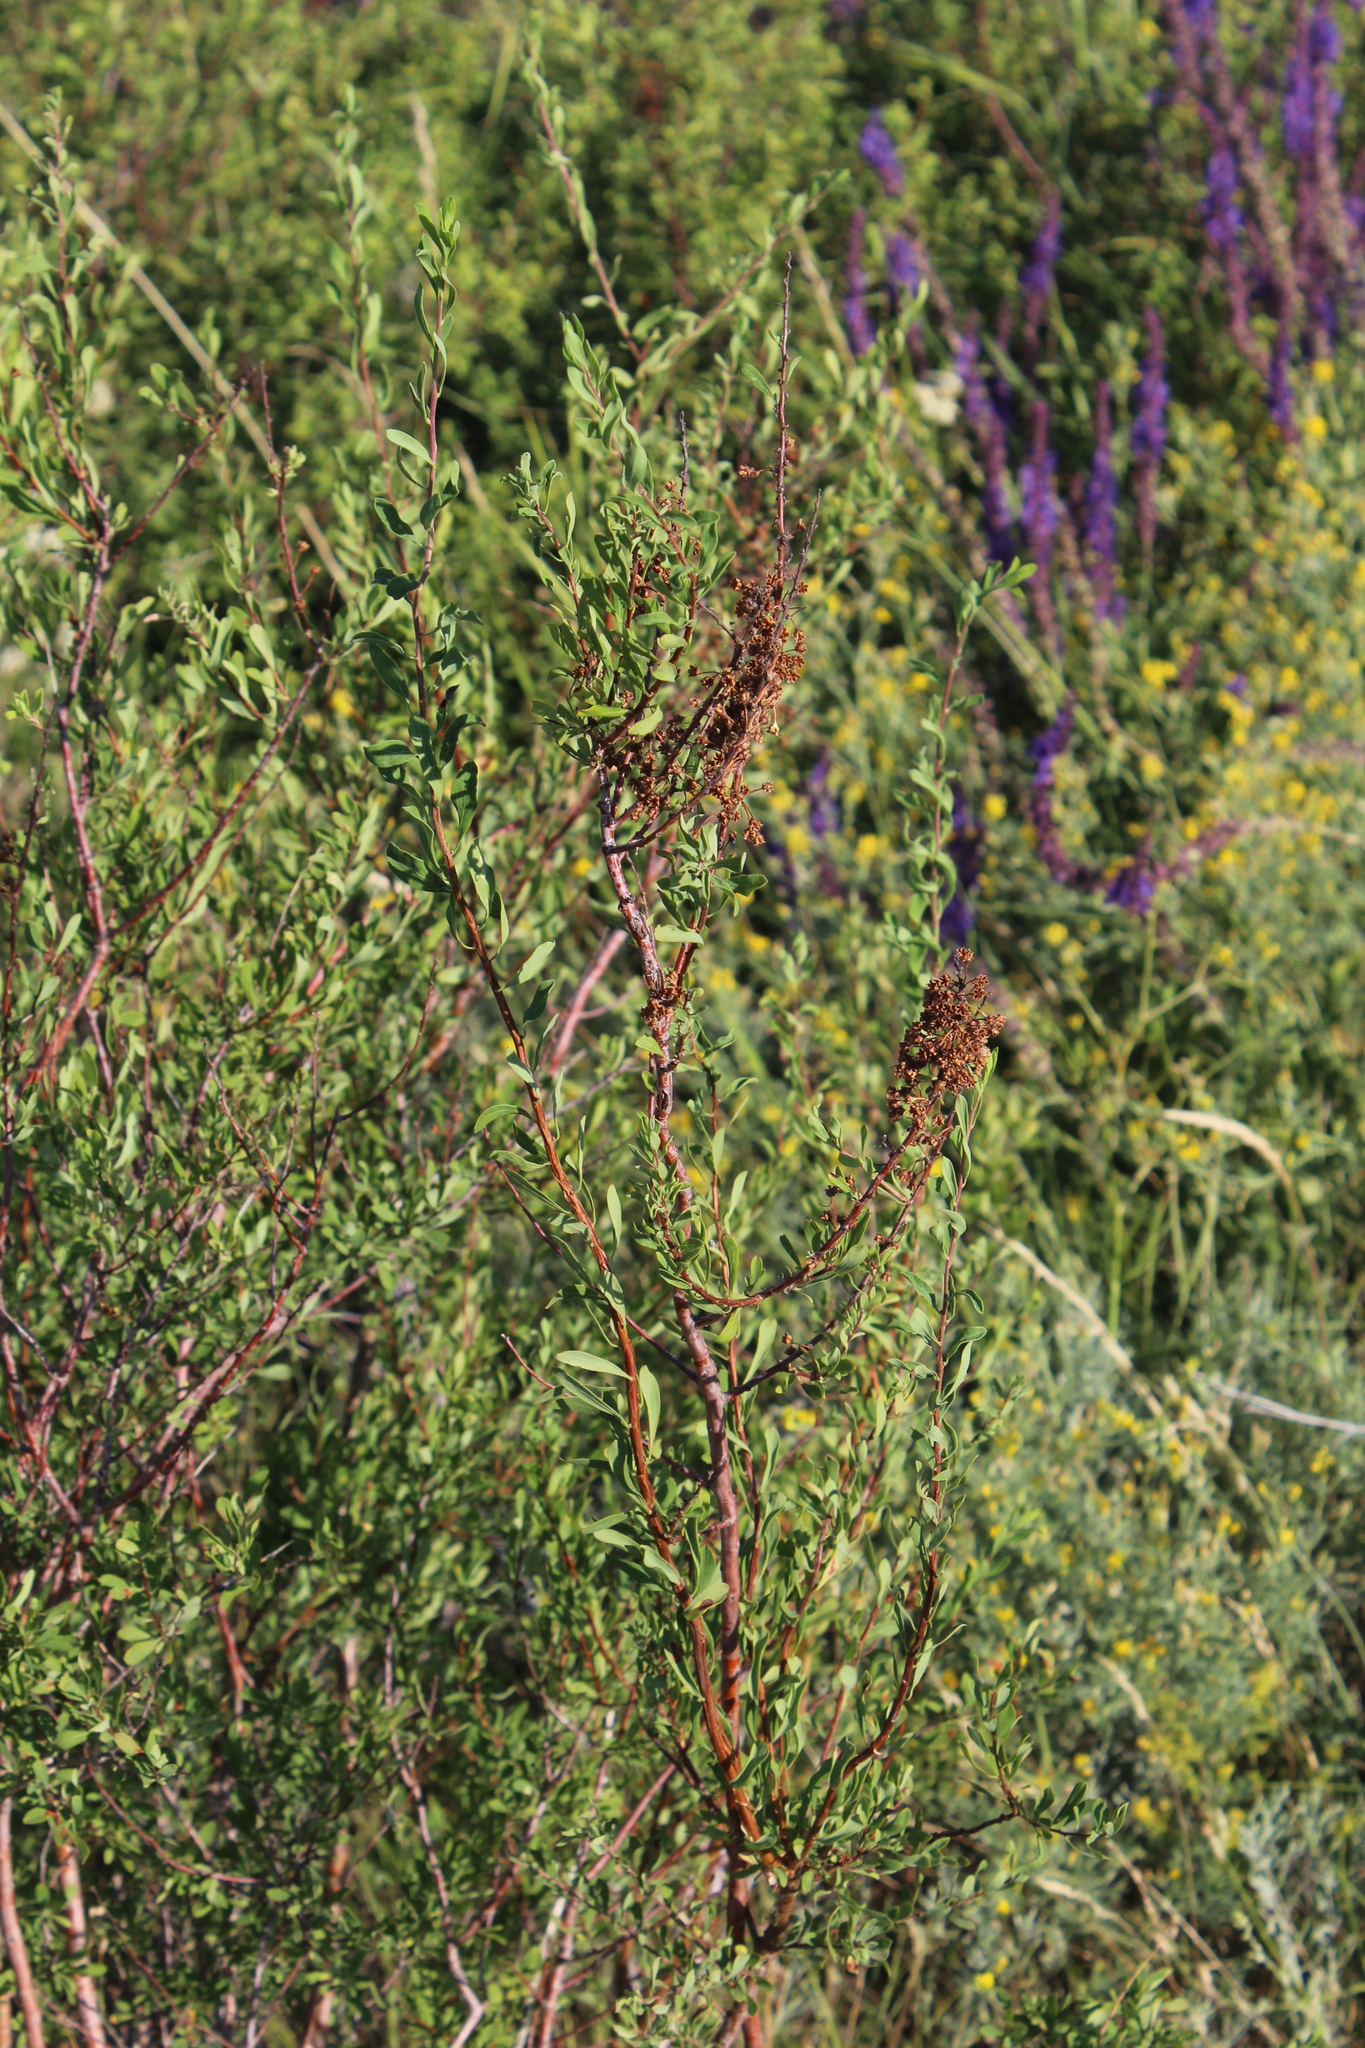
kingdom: Plantae
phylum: Tracheophyta
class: Magnoliopsida
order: Rosales
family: Rosaceae
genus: Spiraea
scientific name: Spiraea hypericifolia
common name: Iberian spirea
